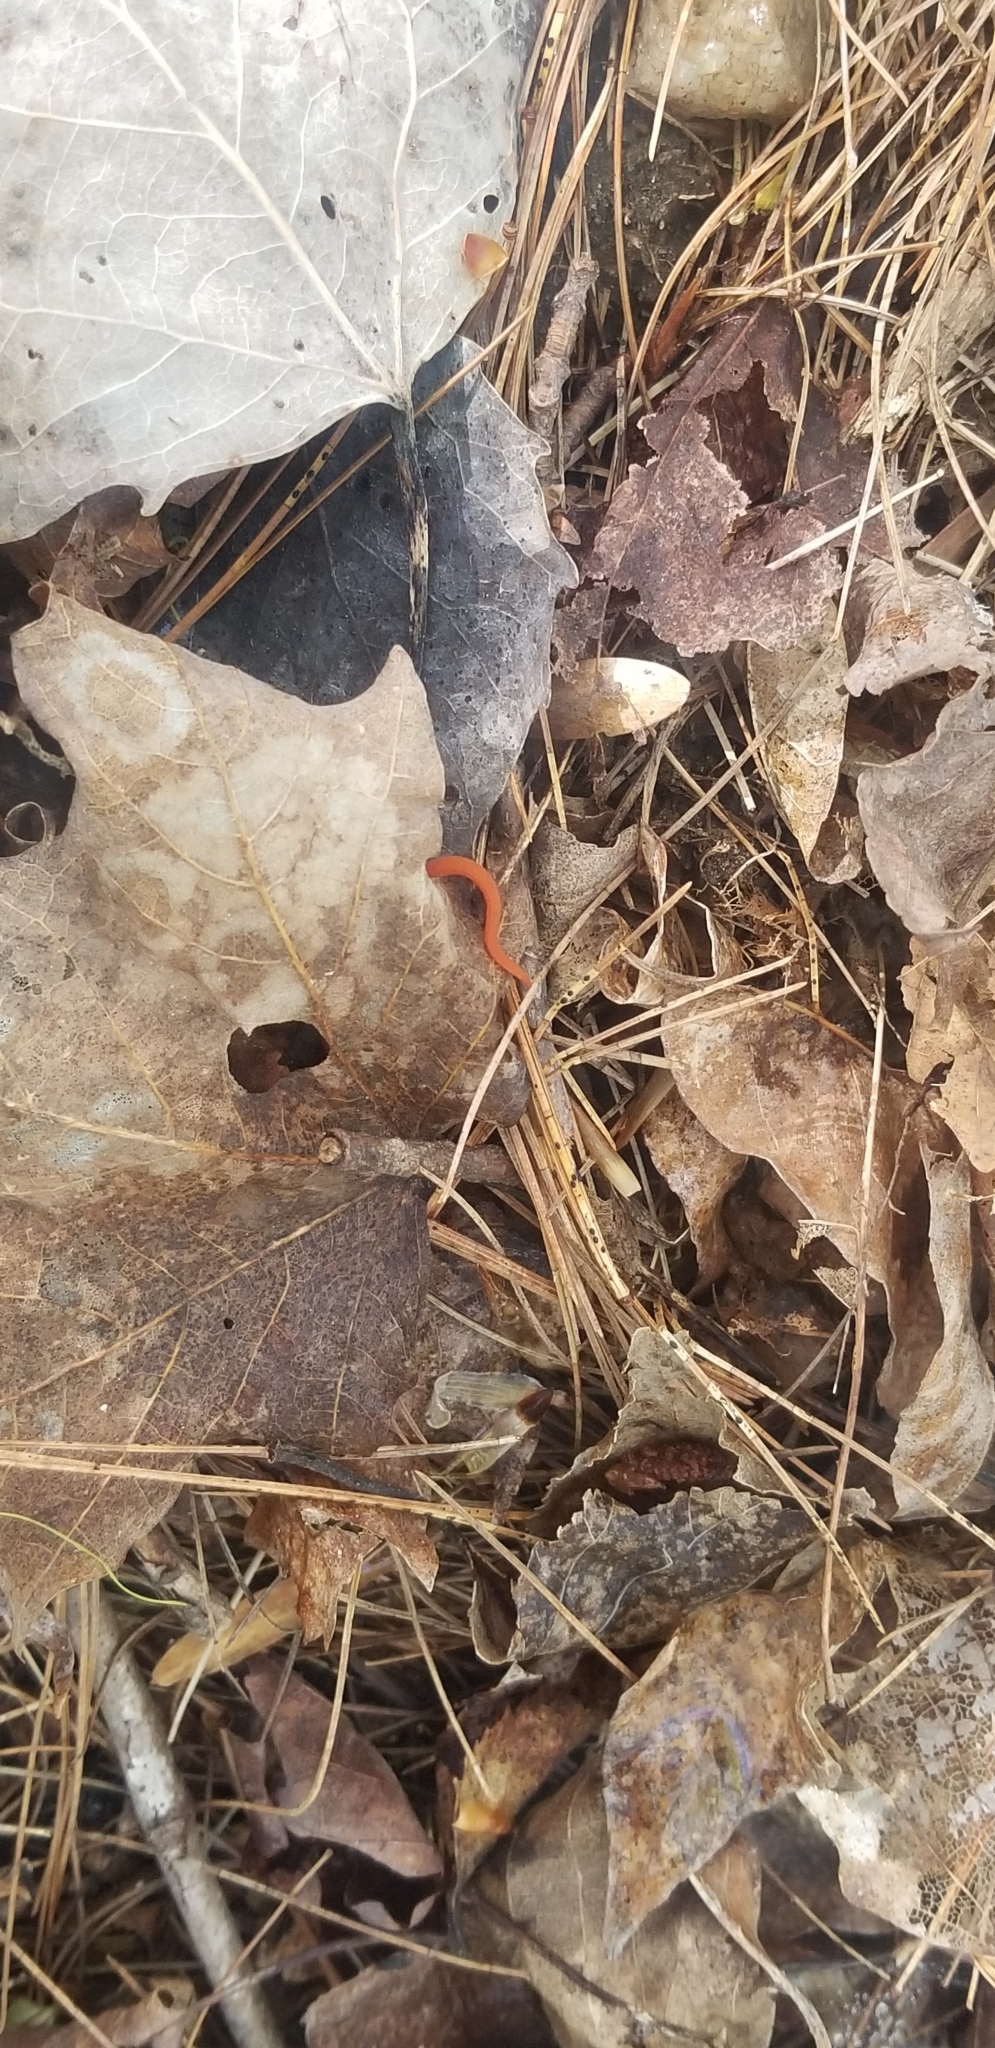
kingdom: Animalia
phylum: Chordata
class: Amphibia
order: Caudata
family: Salamandridae
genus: Notophthalmus
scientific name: Notophthalmus viridescens
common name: Eastern newt
